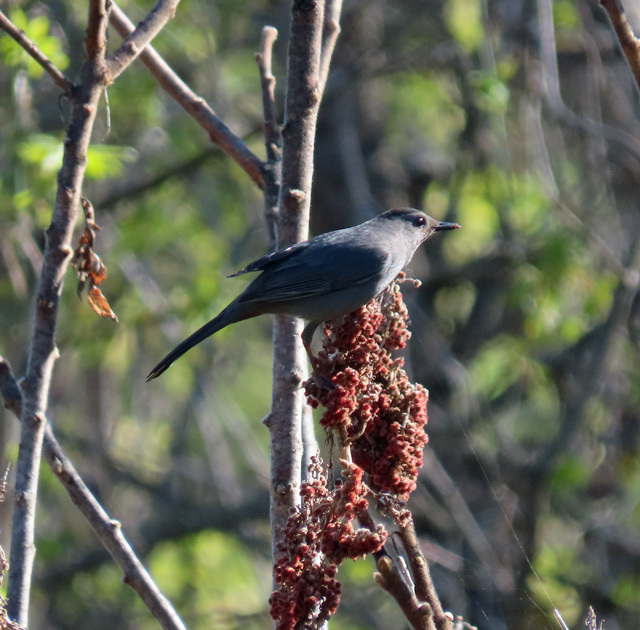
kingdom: Animalia
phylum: Chordata
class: Aves
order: Passeriformes
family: Mimidae
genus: Dumetella
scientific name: Dumetella carolinensis
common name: Gray catbird
